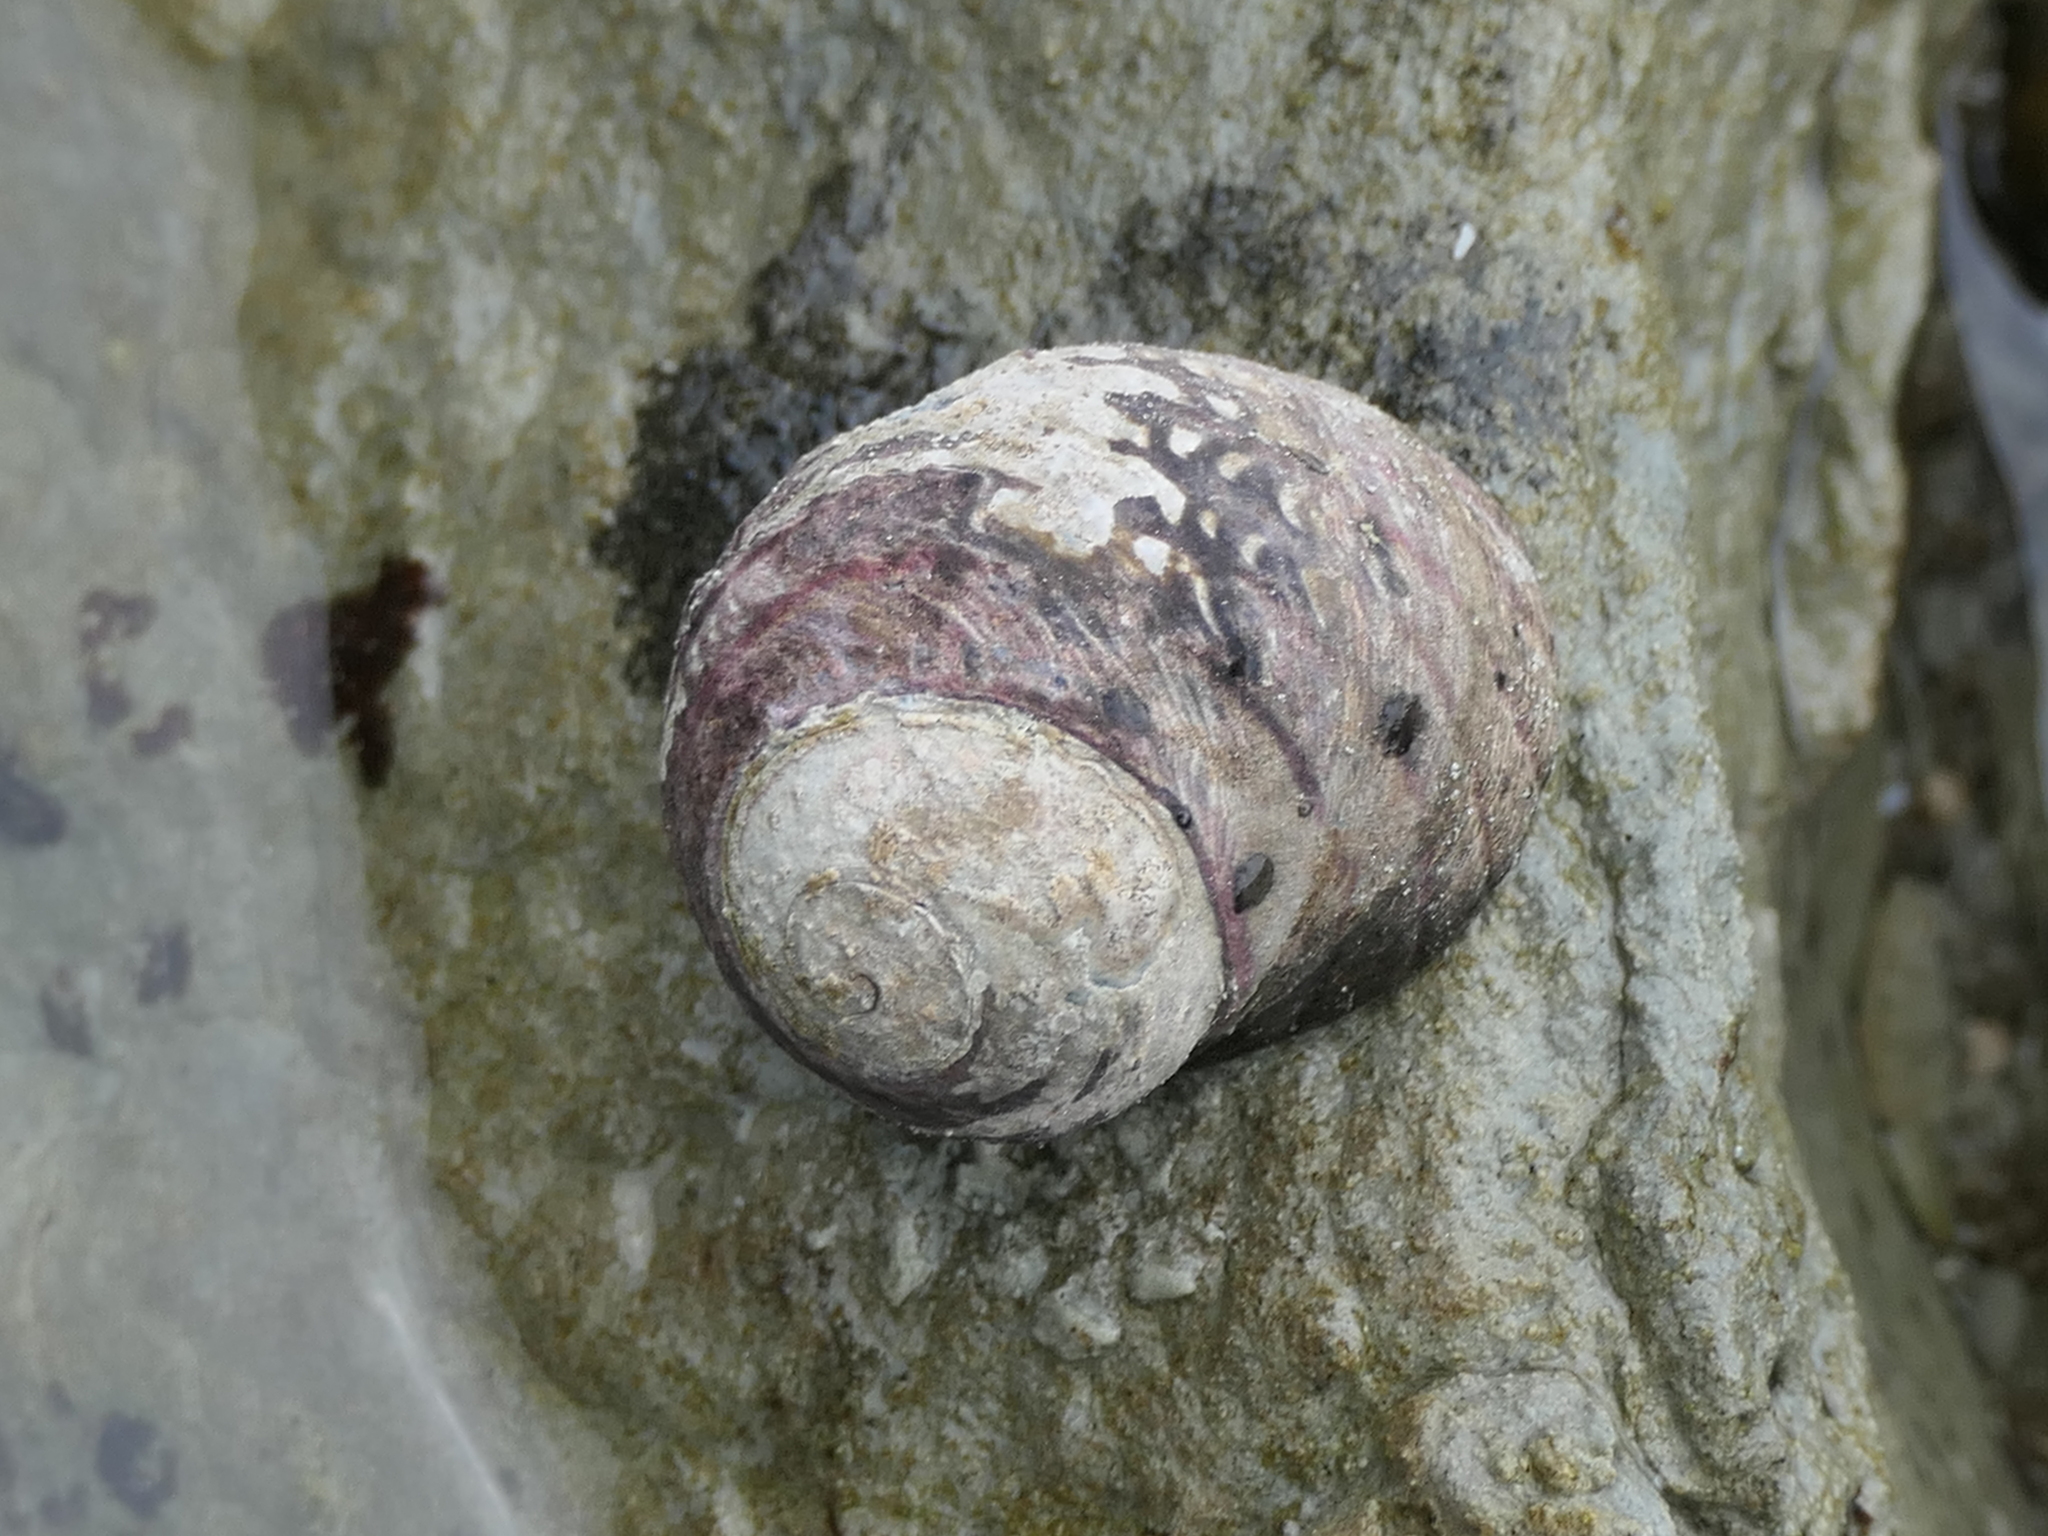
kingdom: Animalia
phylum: Mollusca
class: Gastropoda
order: Trochida
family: Trochidae
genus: Diloma
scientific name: Diloma aethiops
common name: Scorched monodont
